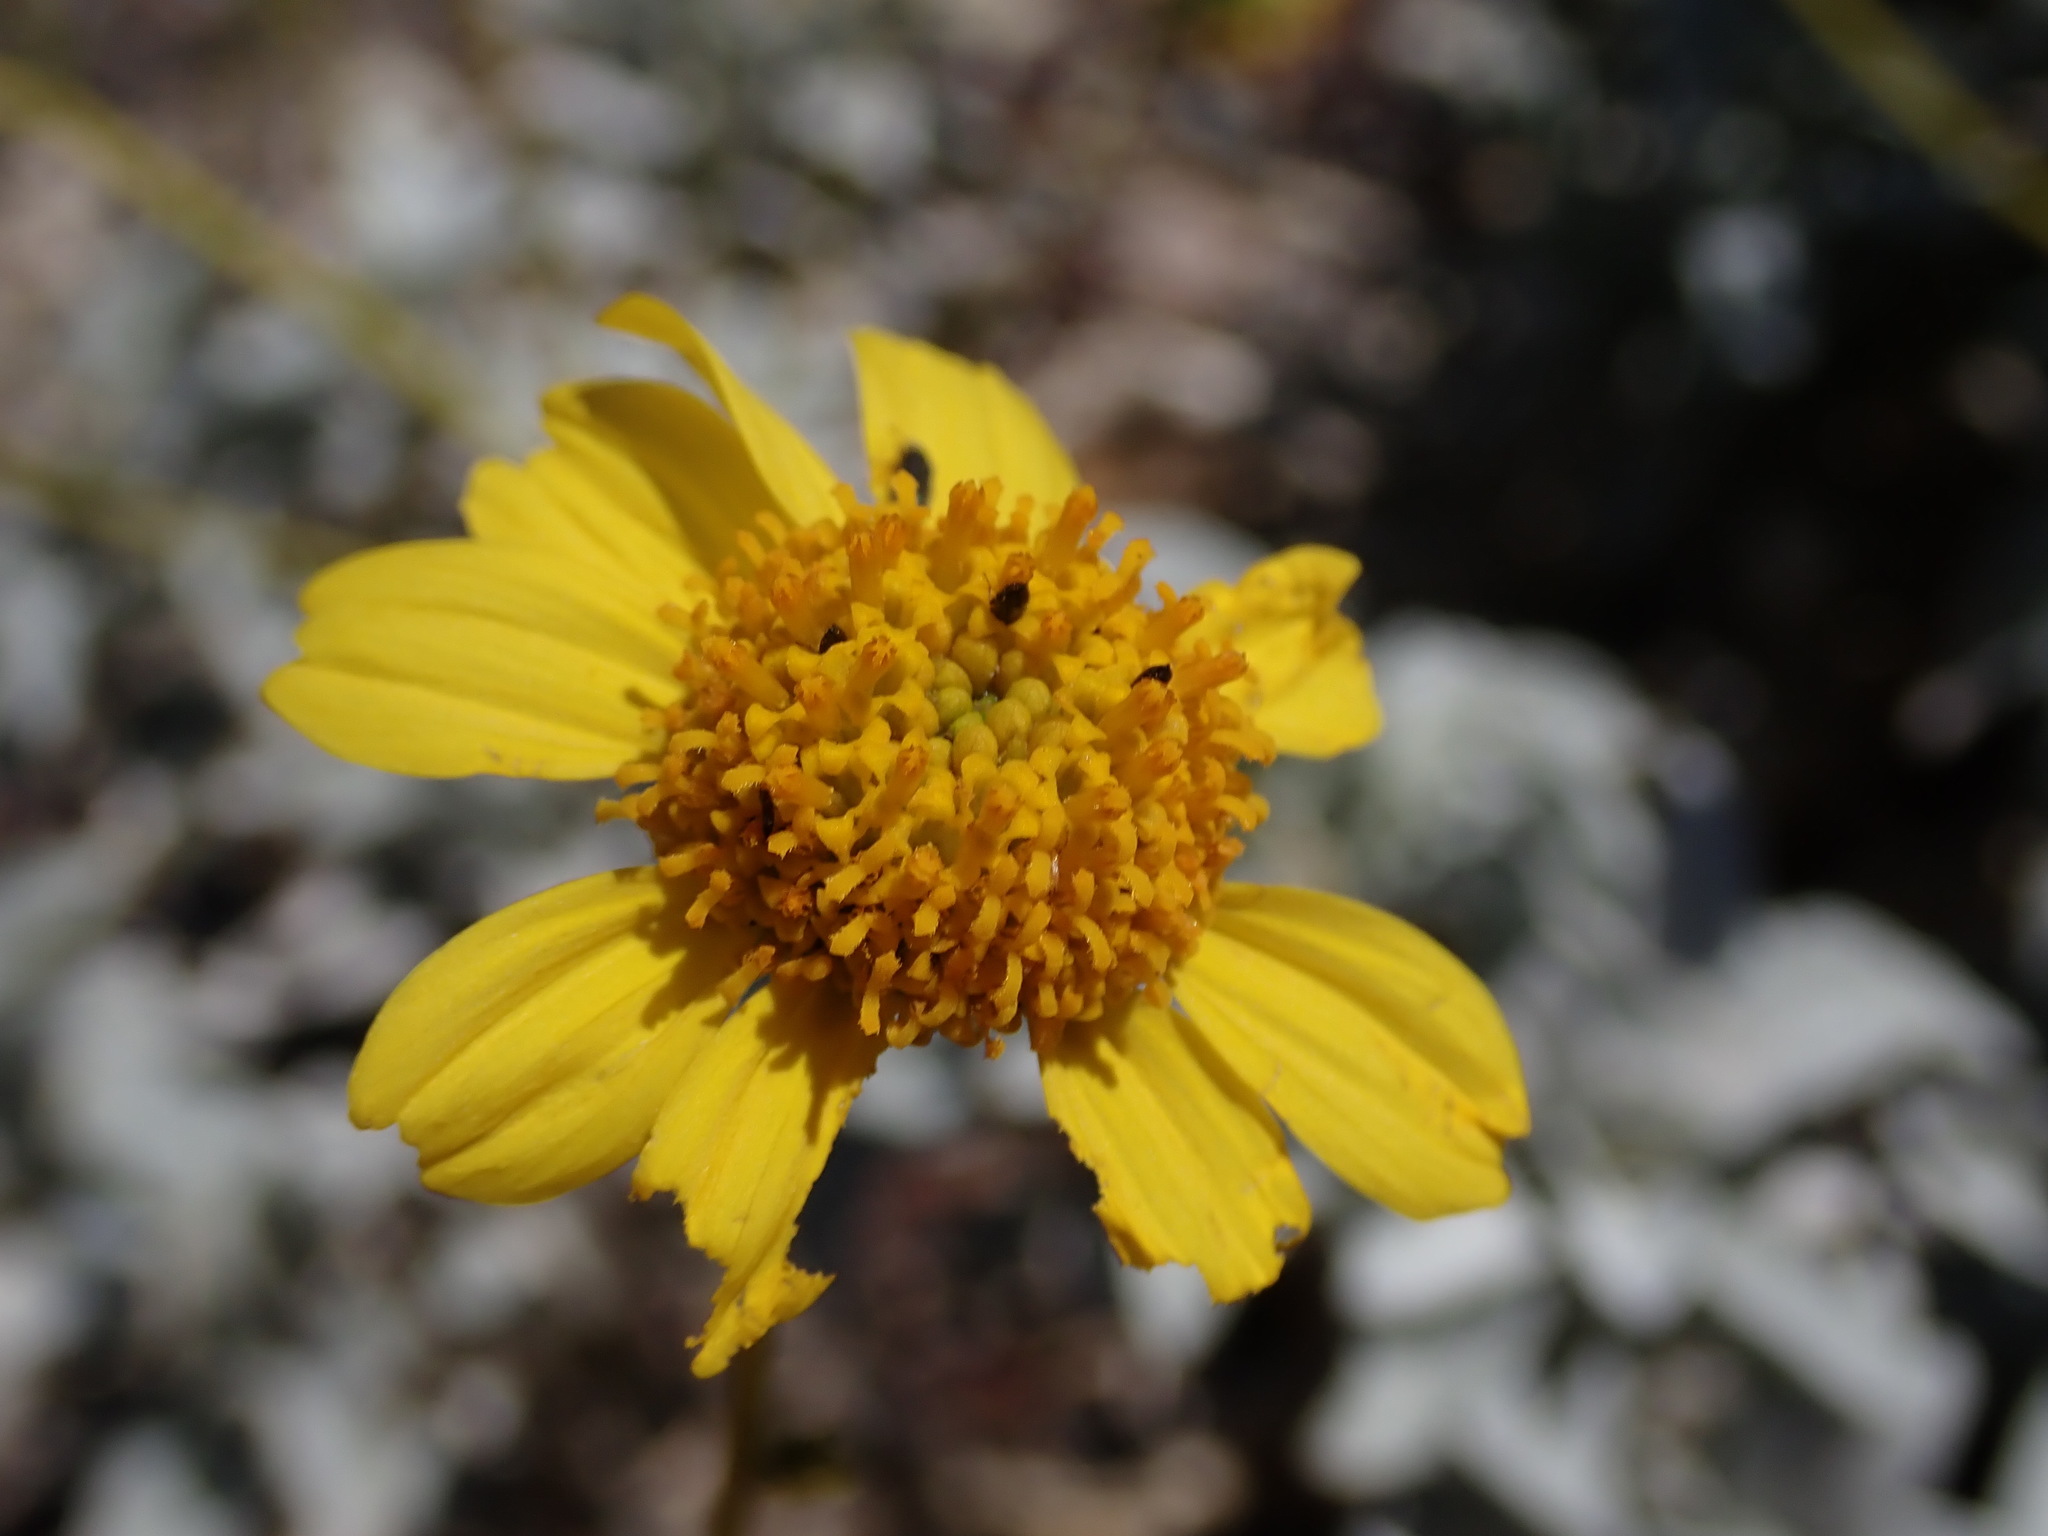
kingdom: Plantae
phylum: Tracheophyta
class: Magnoliopsida
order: Asterales
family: Asteraceae
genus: Encelia
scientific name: Encelia farinosa
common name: Brittlebush
